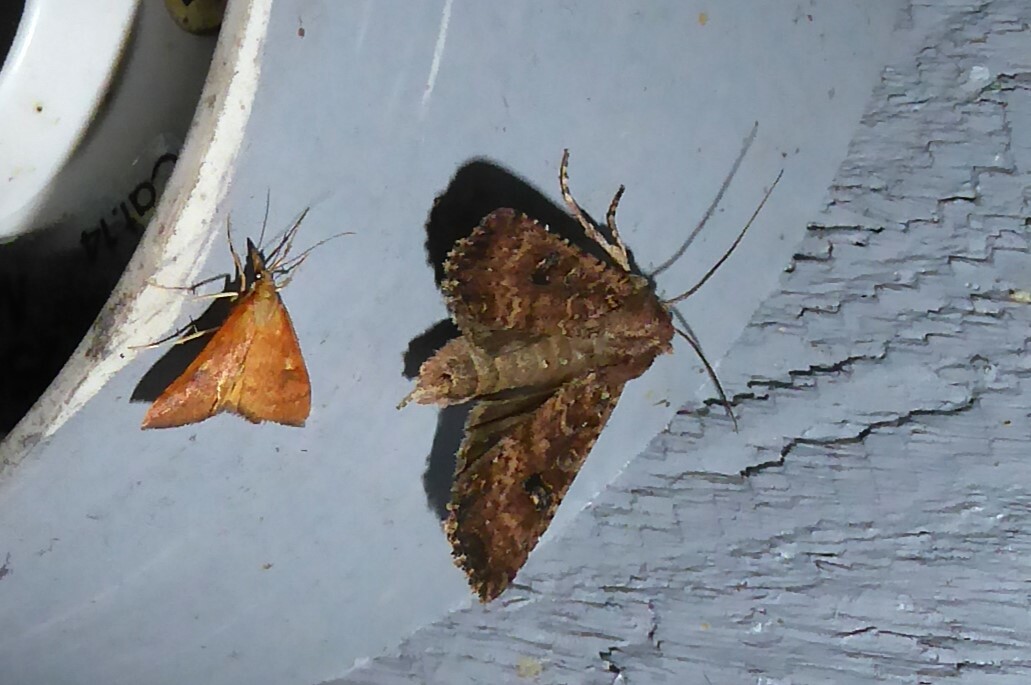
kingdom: Animalia
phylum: Arthropoda
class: Insecta
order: Lepidoptera
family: Noctuidae
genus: Ichneutica
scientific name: Ichneutica morosa
